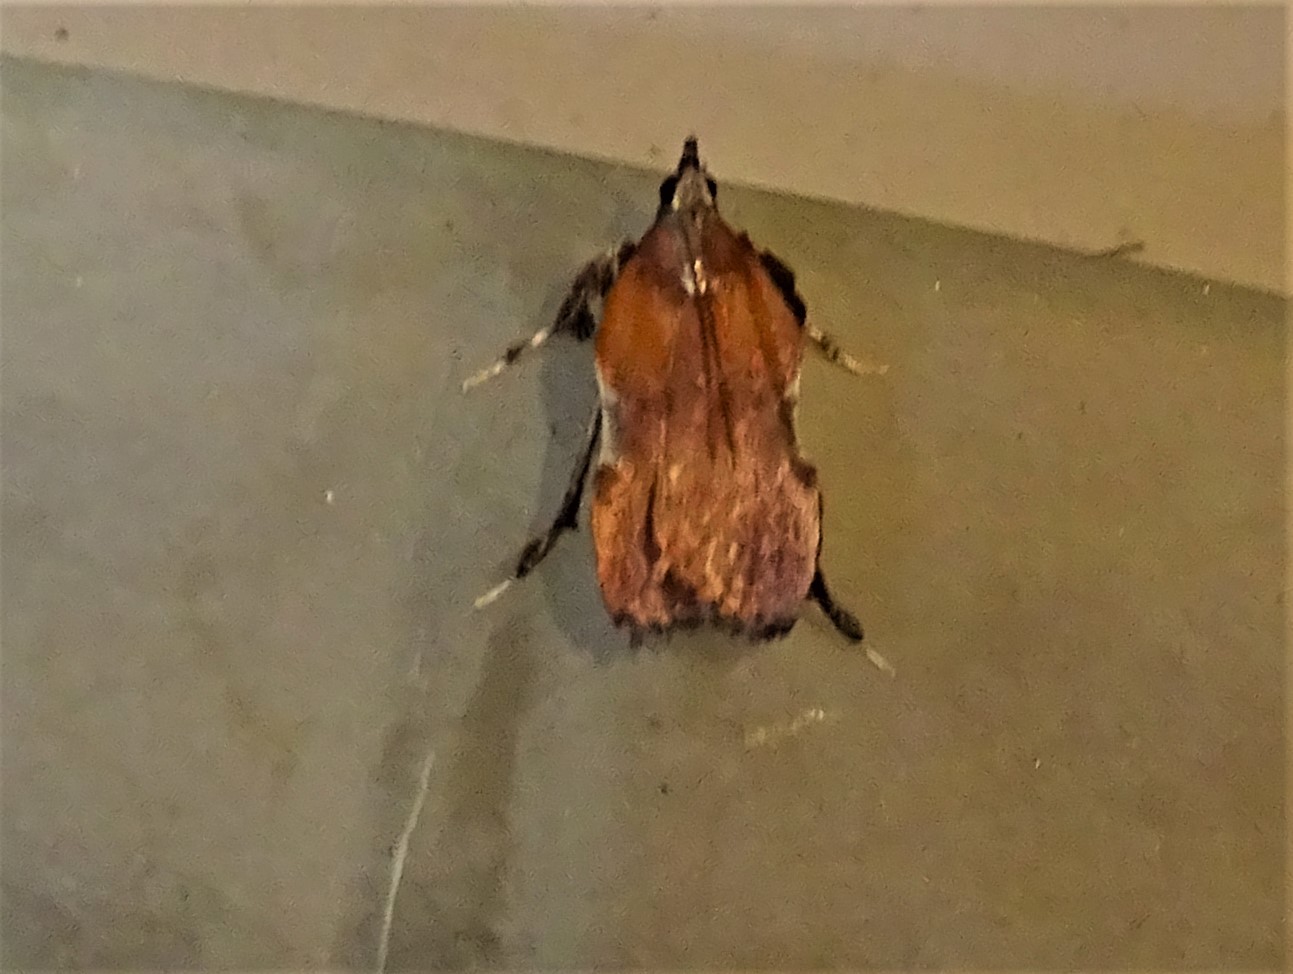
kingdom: Animalia
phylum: Arthropoda
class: Insecta
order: Lepidoptera
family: Pyralidae
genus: Galasa
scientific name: Galasa nigrinodis
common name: Boxwood leaftier moth
